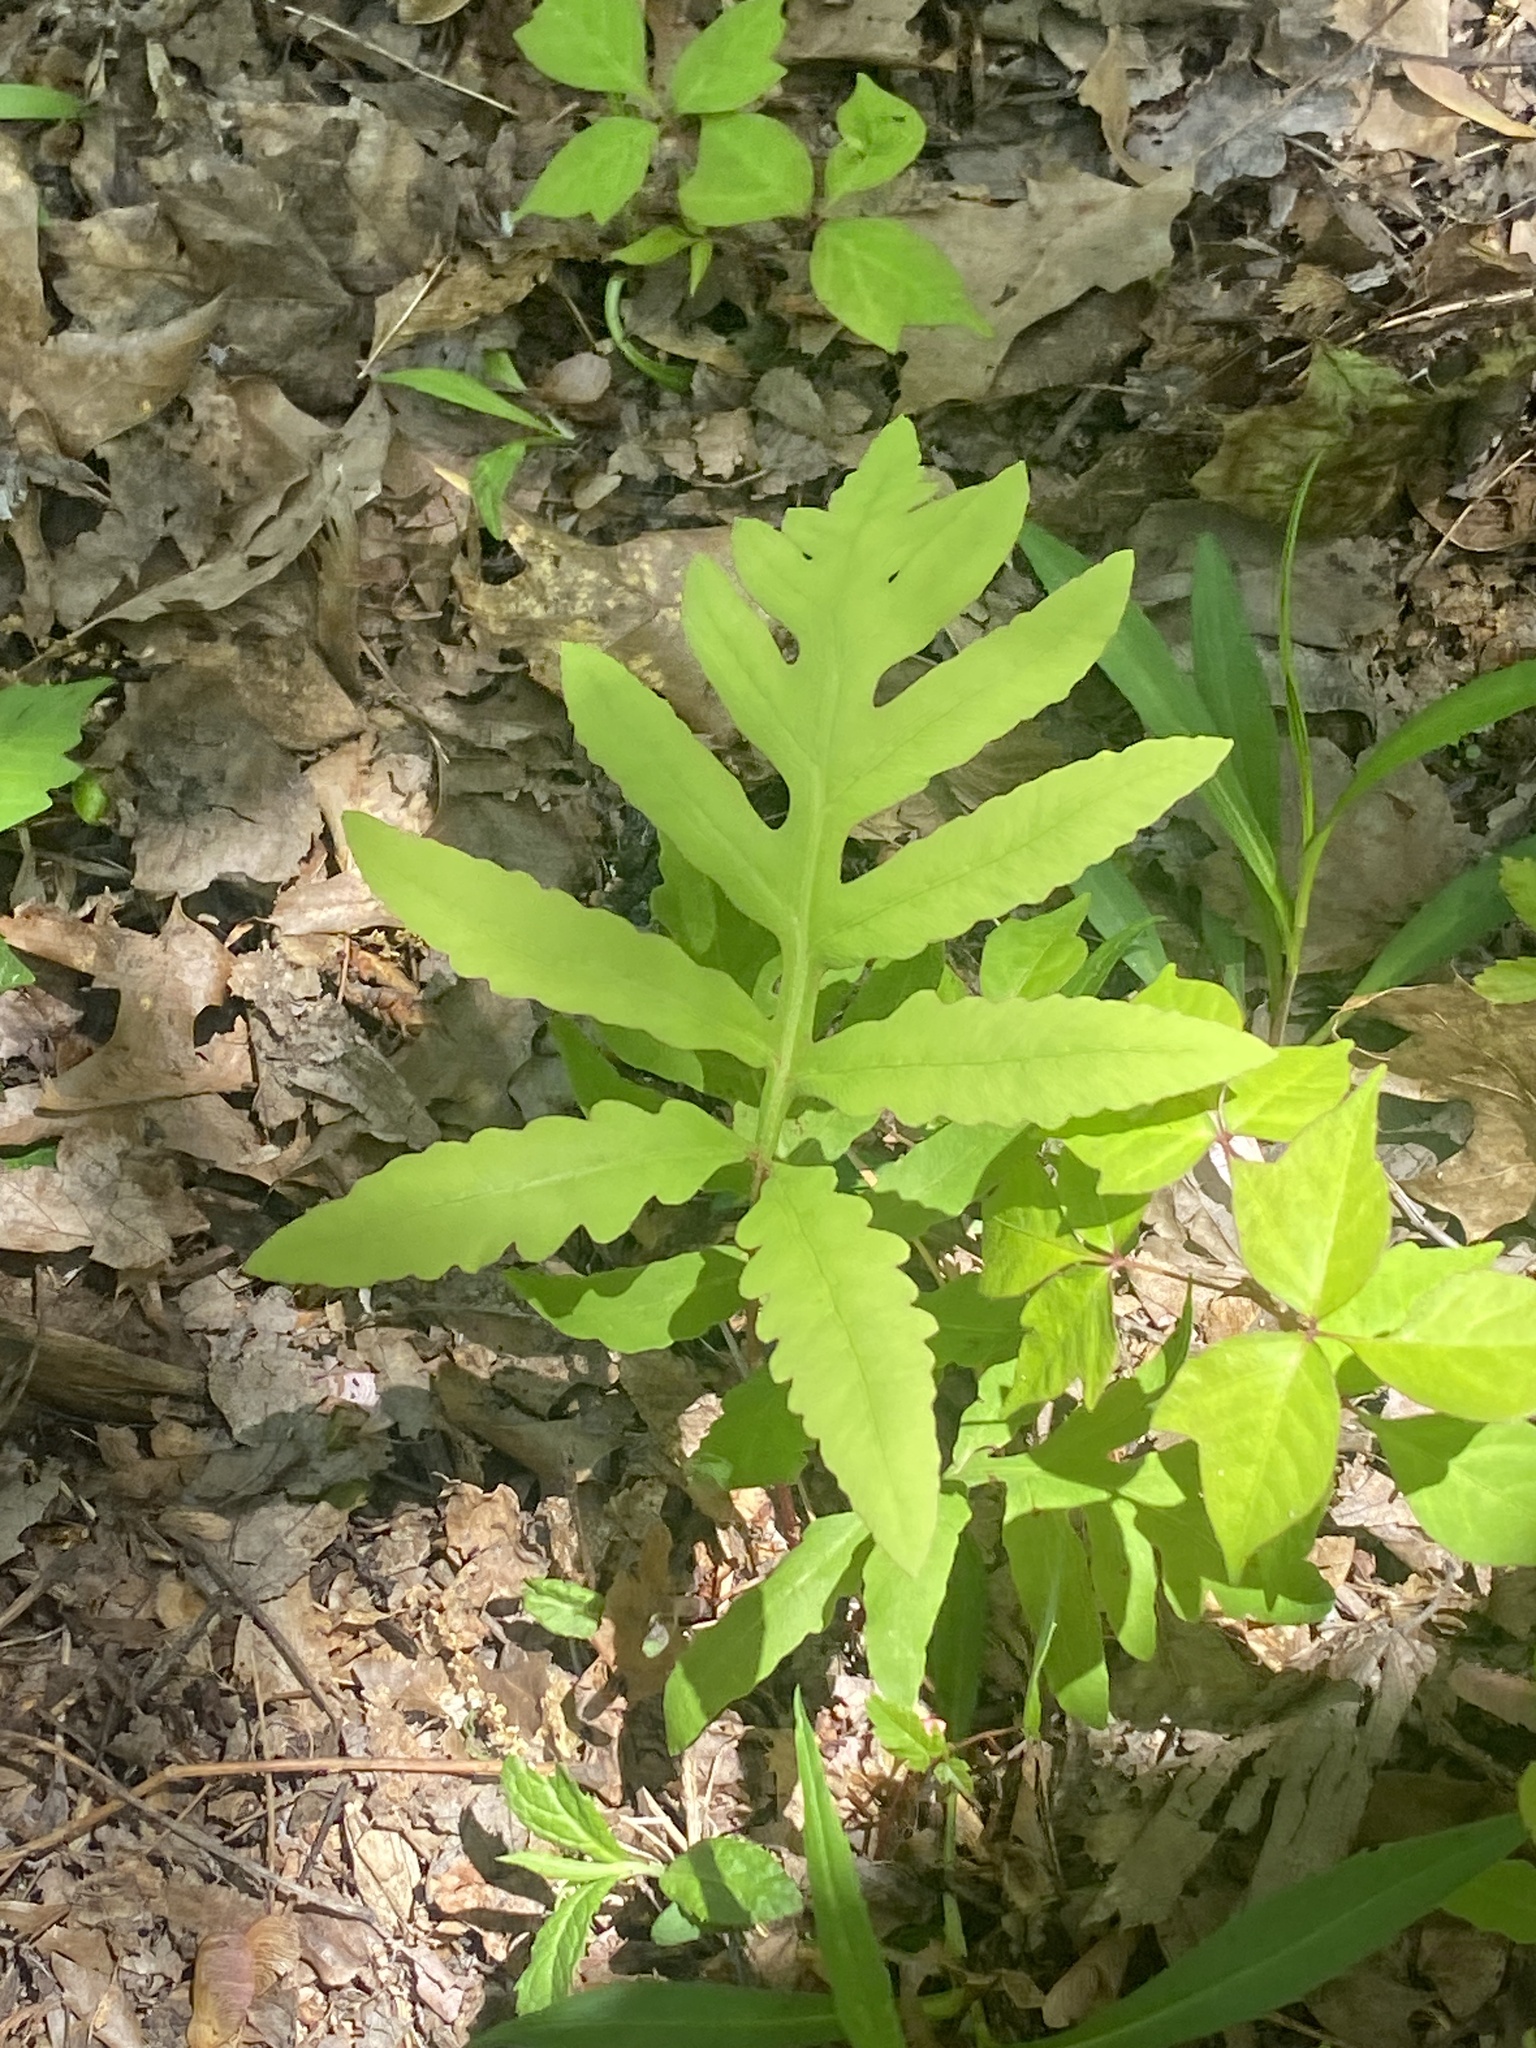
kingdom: Plantae
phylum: Tracheophyta
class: Polypodiopsida
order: Polypodiales
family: Onocleaceae
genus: Onoclea
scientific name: Onoclea sensibilis
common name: Sensitive fern
